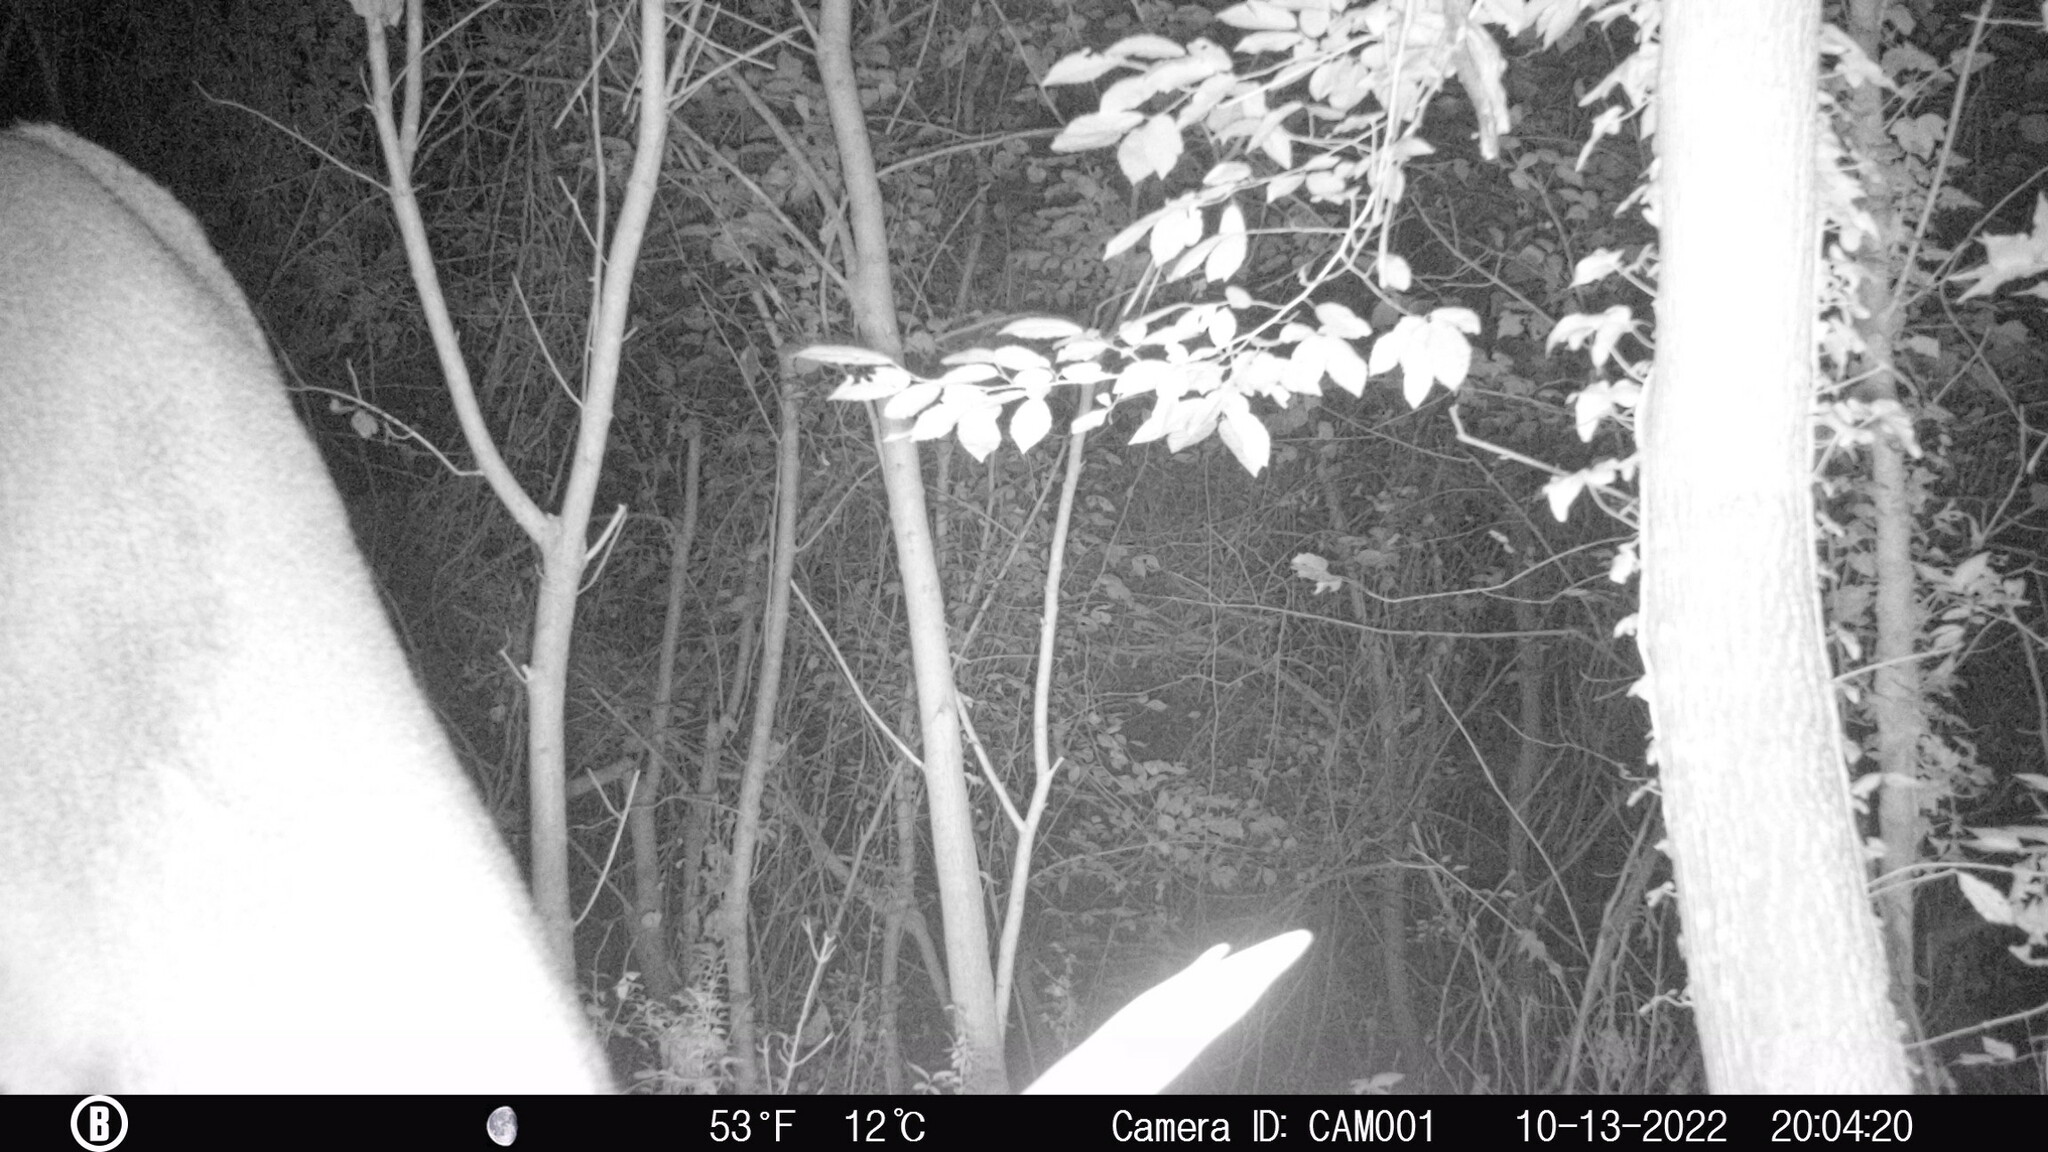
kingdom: Animalia
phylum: Chordata
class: Mammalia
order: Artiodactyla
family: Cervidae
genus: Odocoileus
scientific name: Odocoileus virginianus
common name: White-tailed deer
